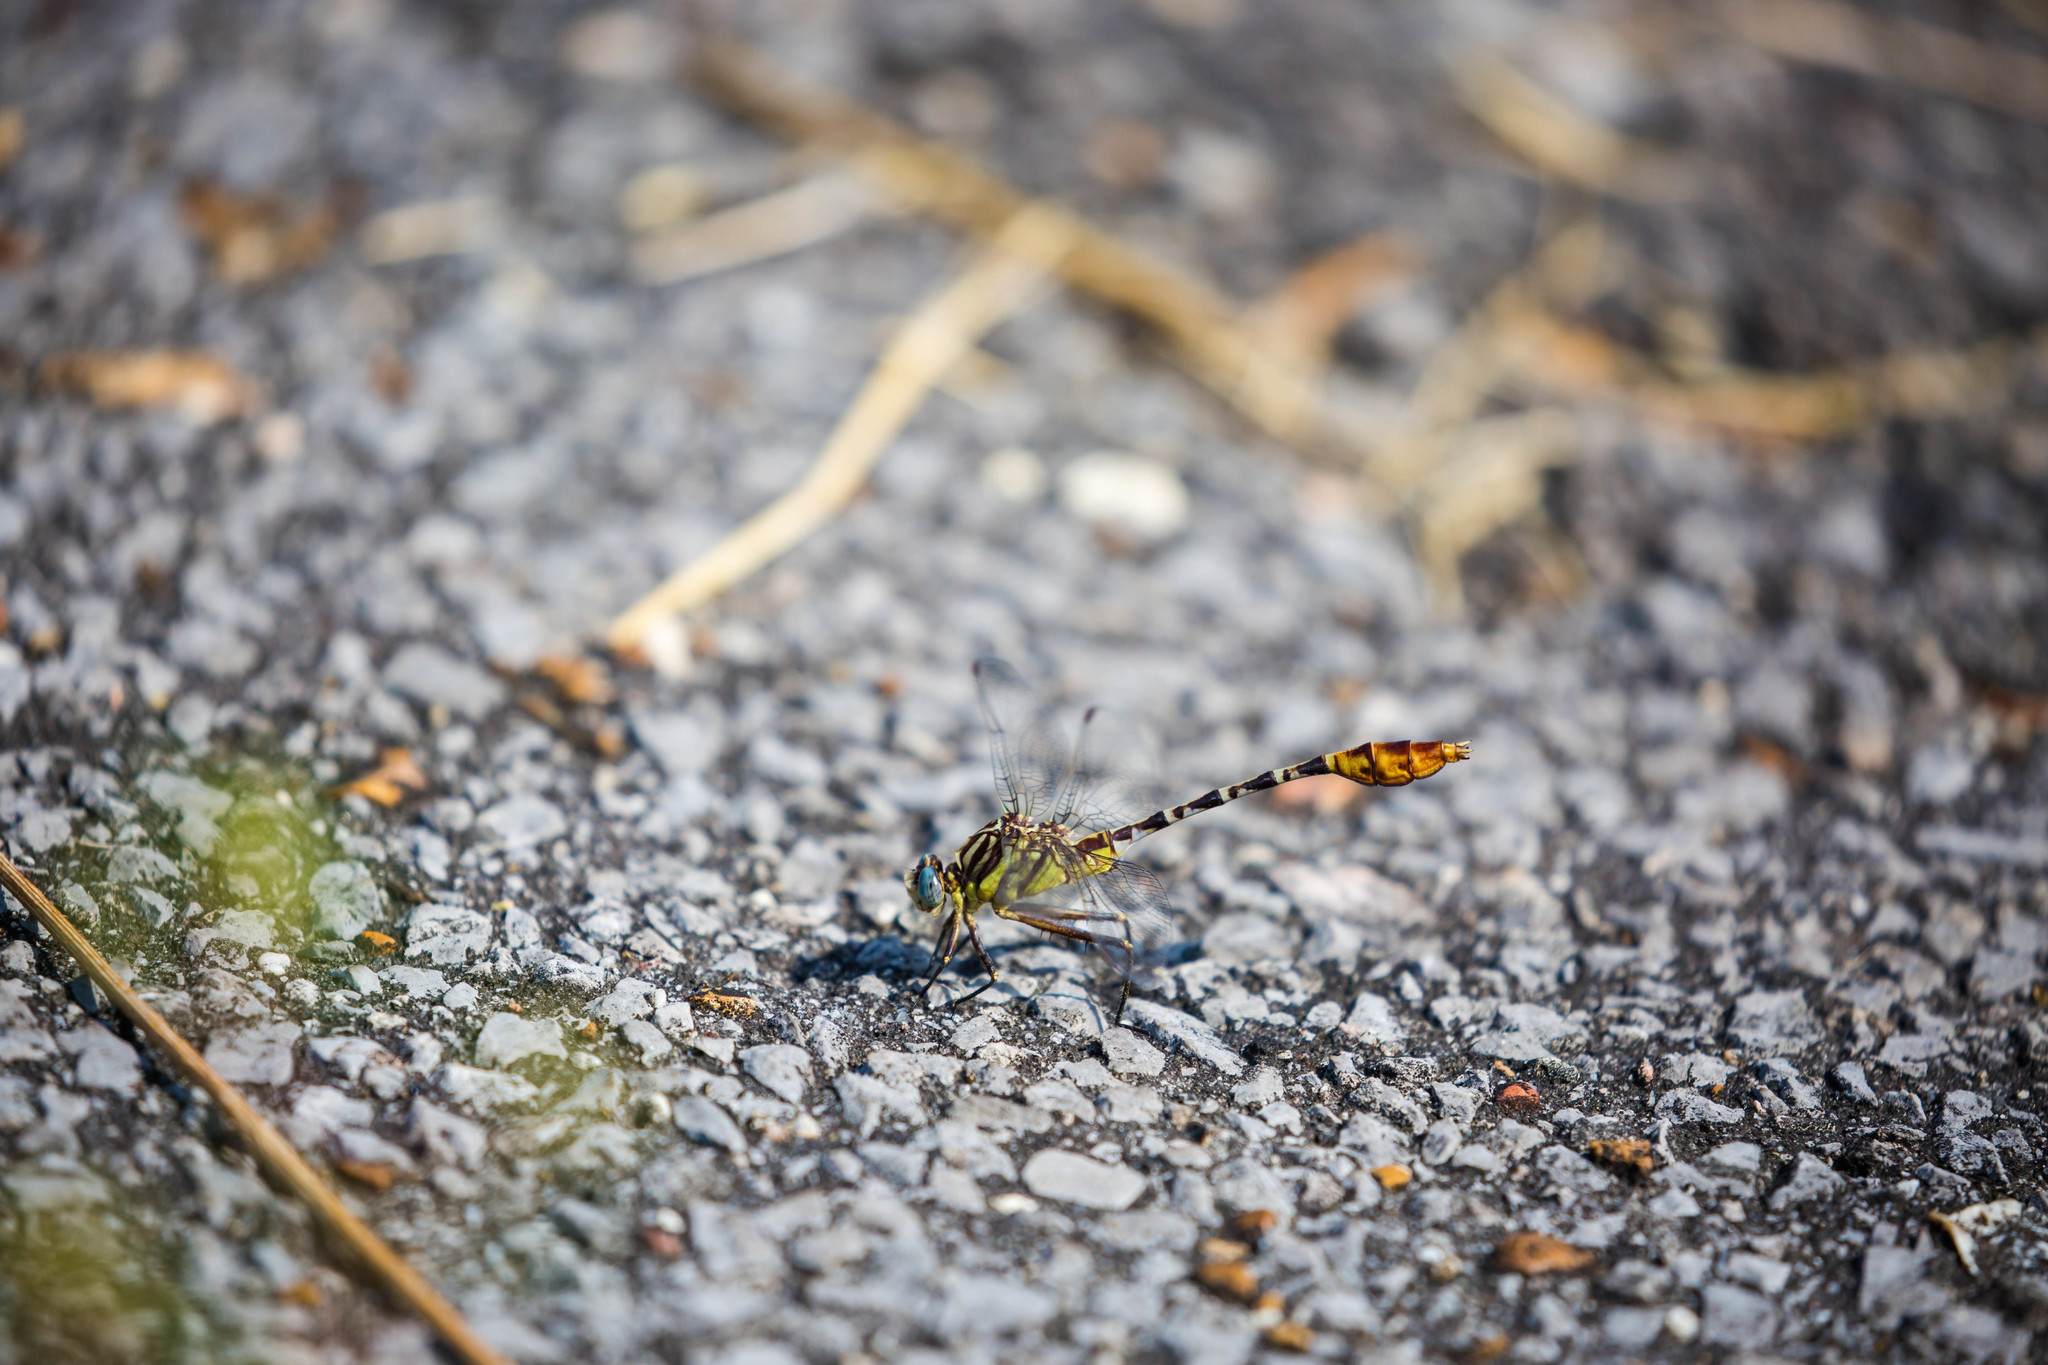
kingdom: Animalia
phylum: Arthropoda
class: Insecta
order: Odonata
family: Gomphidae
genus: Dromogomphus
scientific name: Dromogomphus spoliatus
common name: Flag-tailed spinyleg
